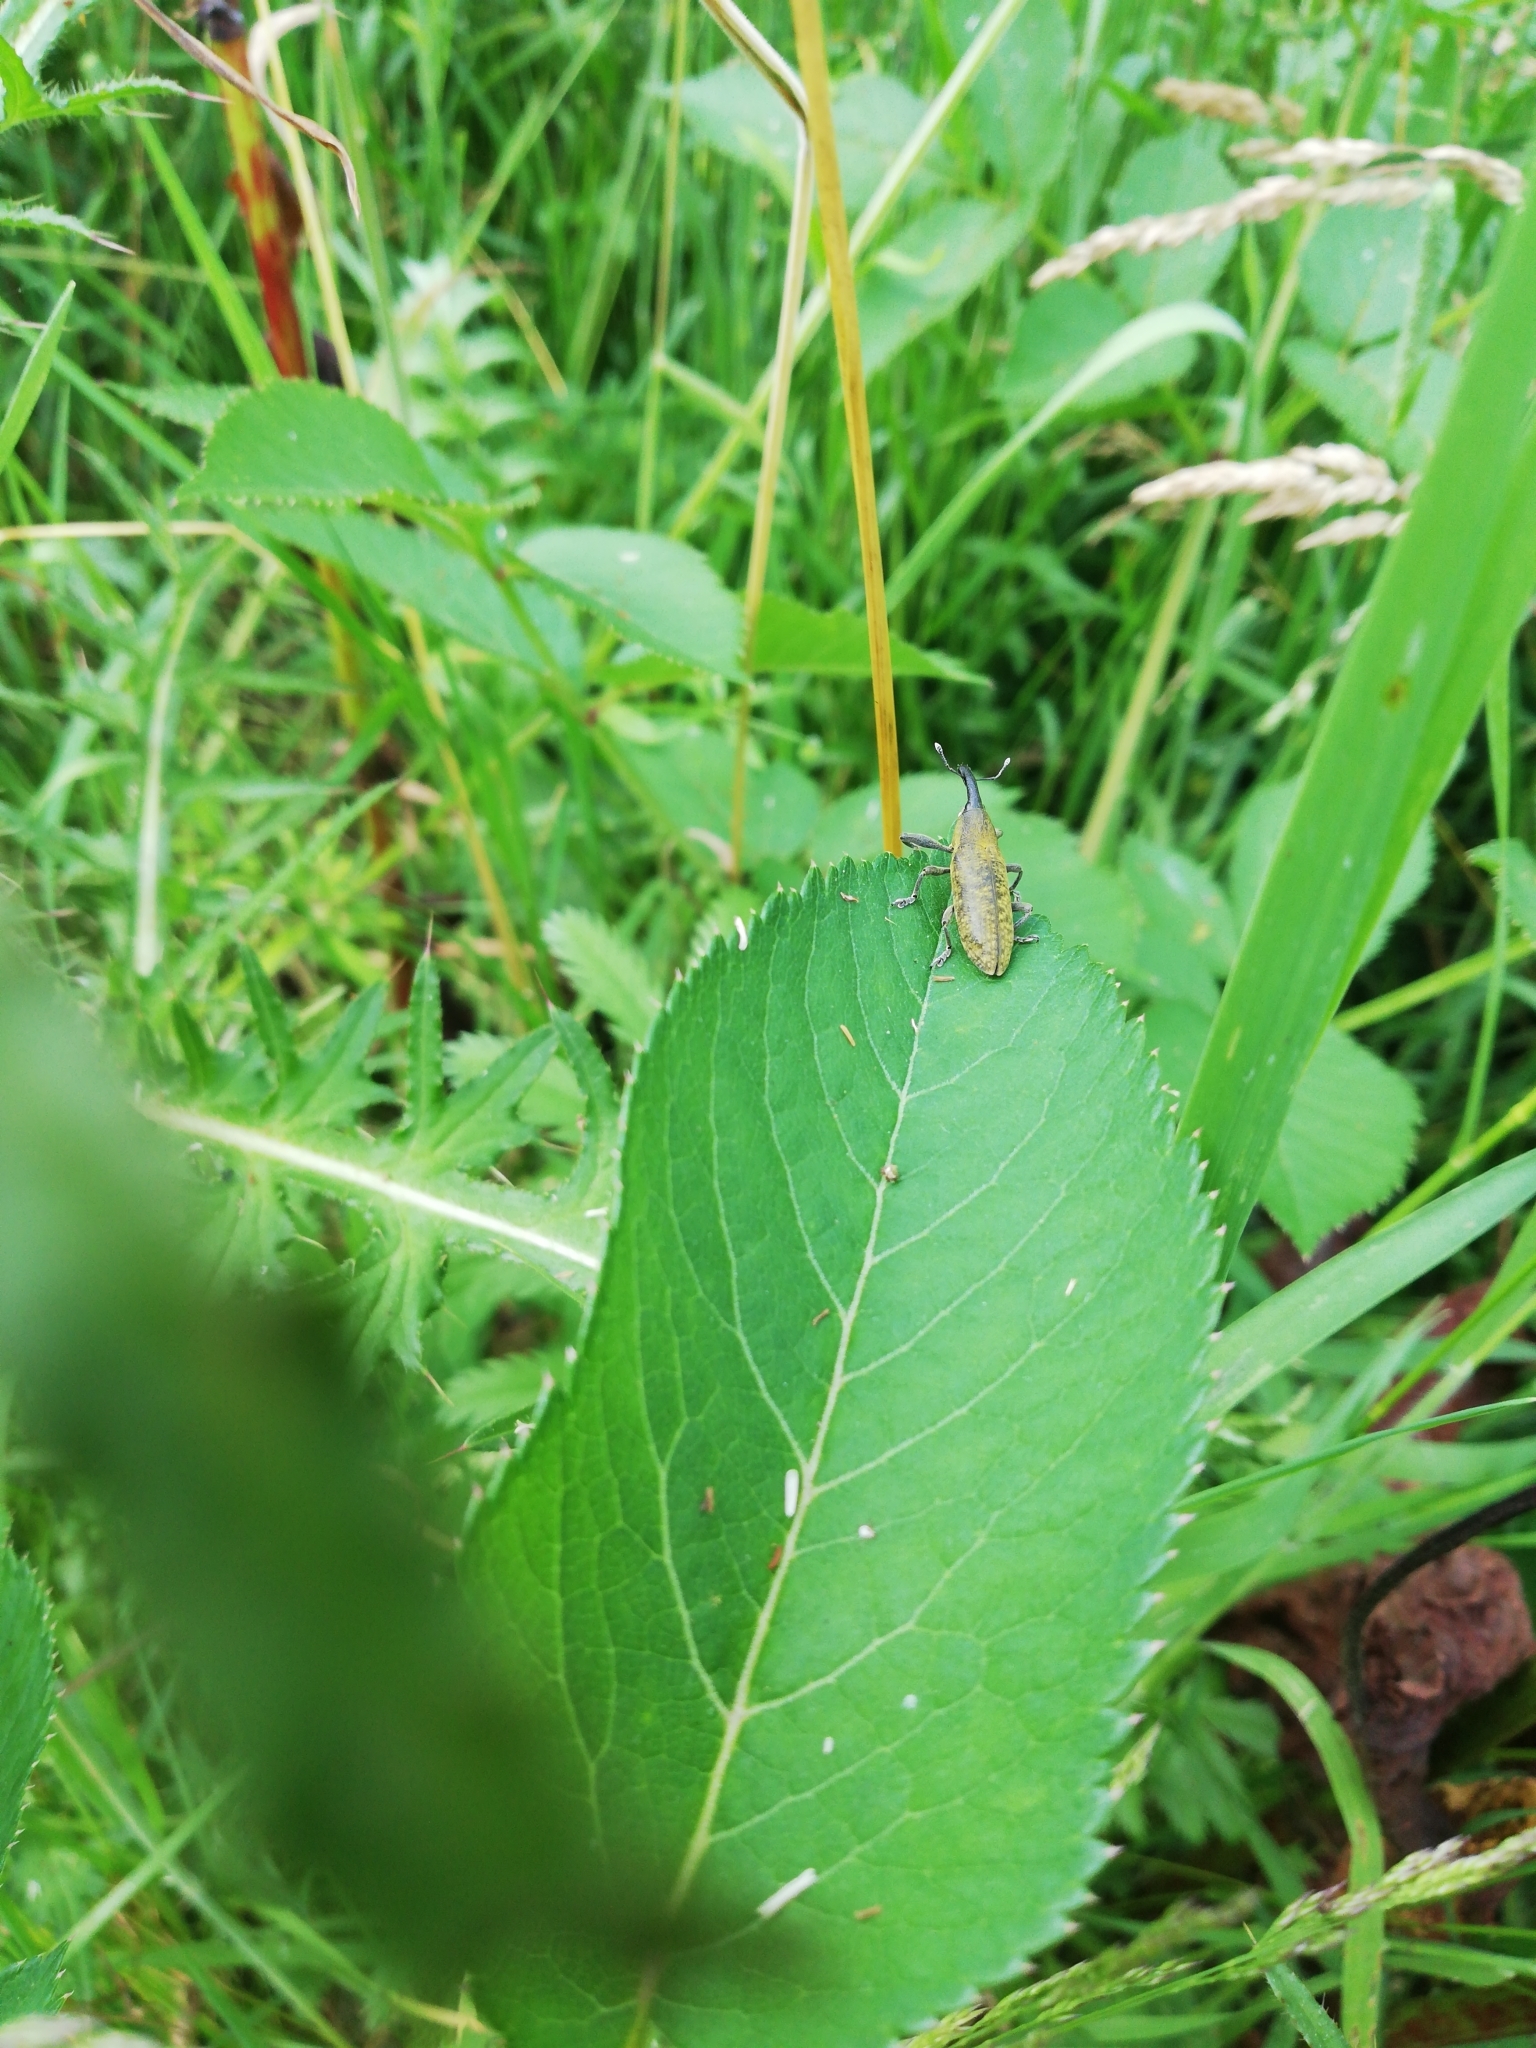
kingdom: Animalia
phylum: Arthropoda
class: Insecta
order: Coleoptera
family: Curculionidae
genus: Lixus
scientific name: Lixus pulverulentus
